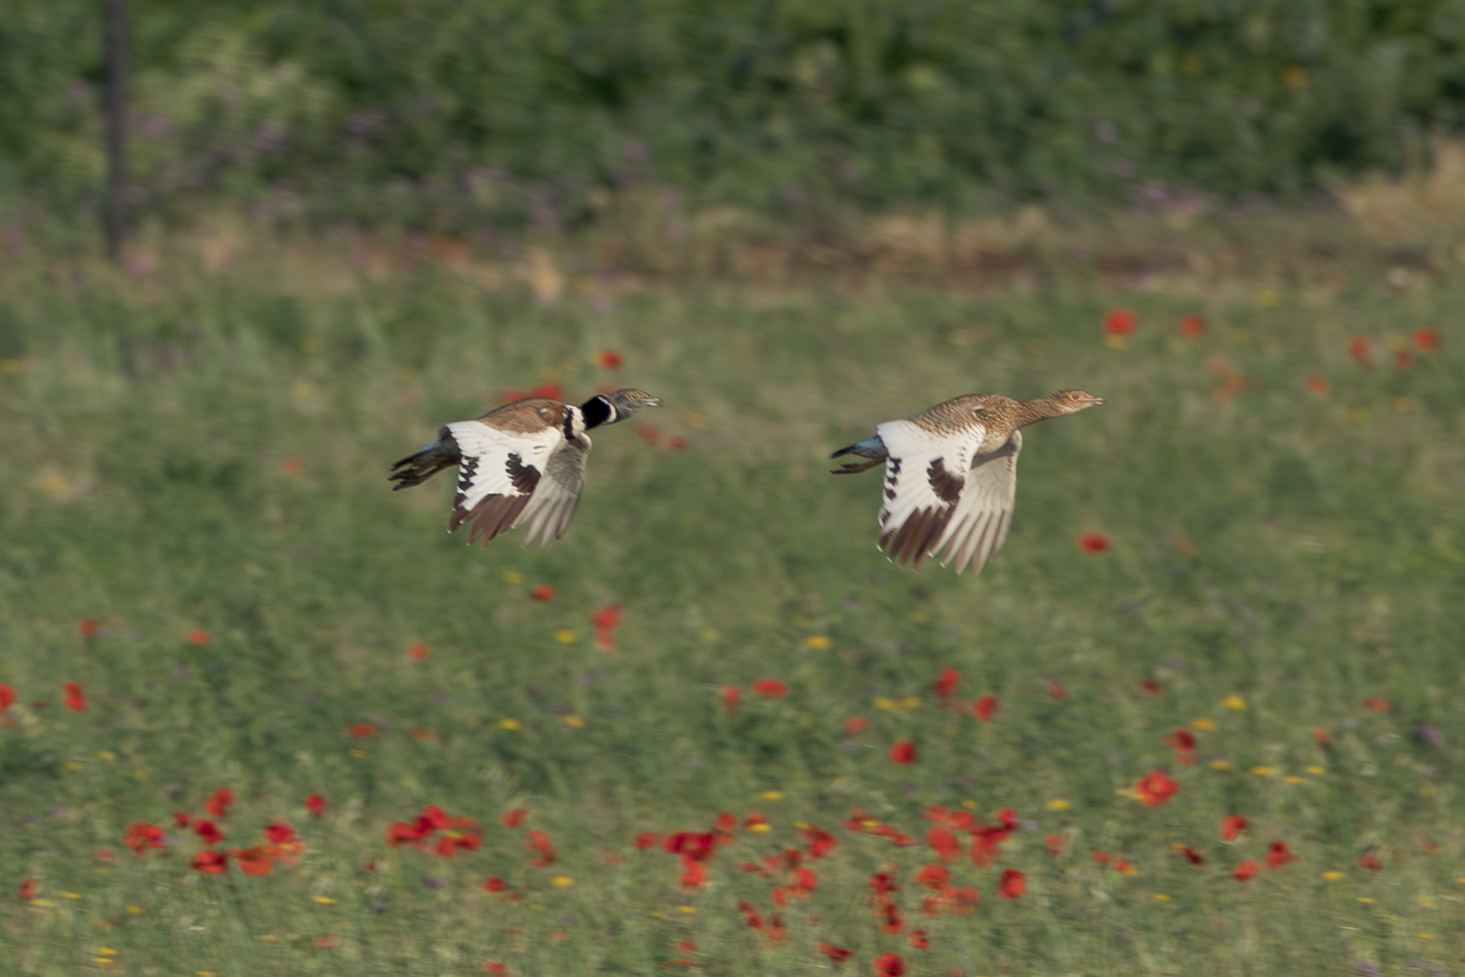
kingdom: Animalia
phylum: Chordata
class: Aves
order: Otidiformes
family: Otididae
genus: Tetrax
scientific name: Tetrax tetrax
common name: Little bustard
